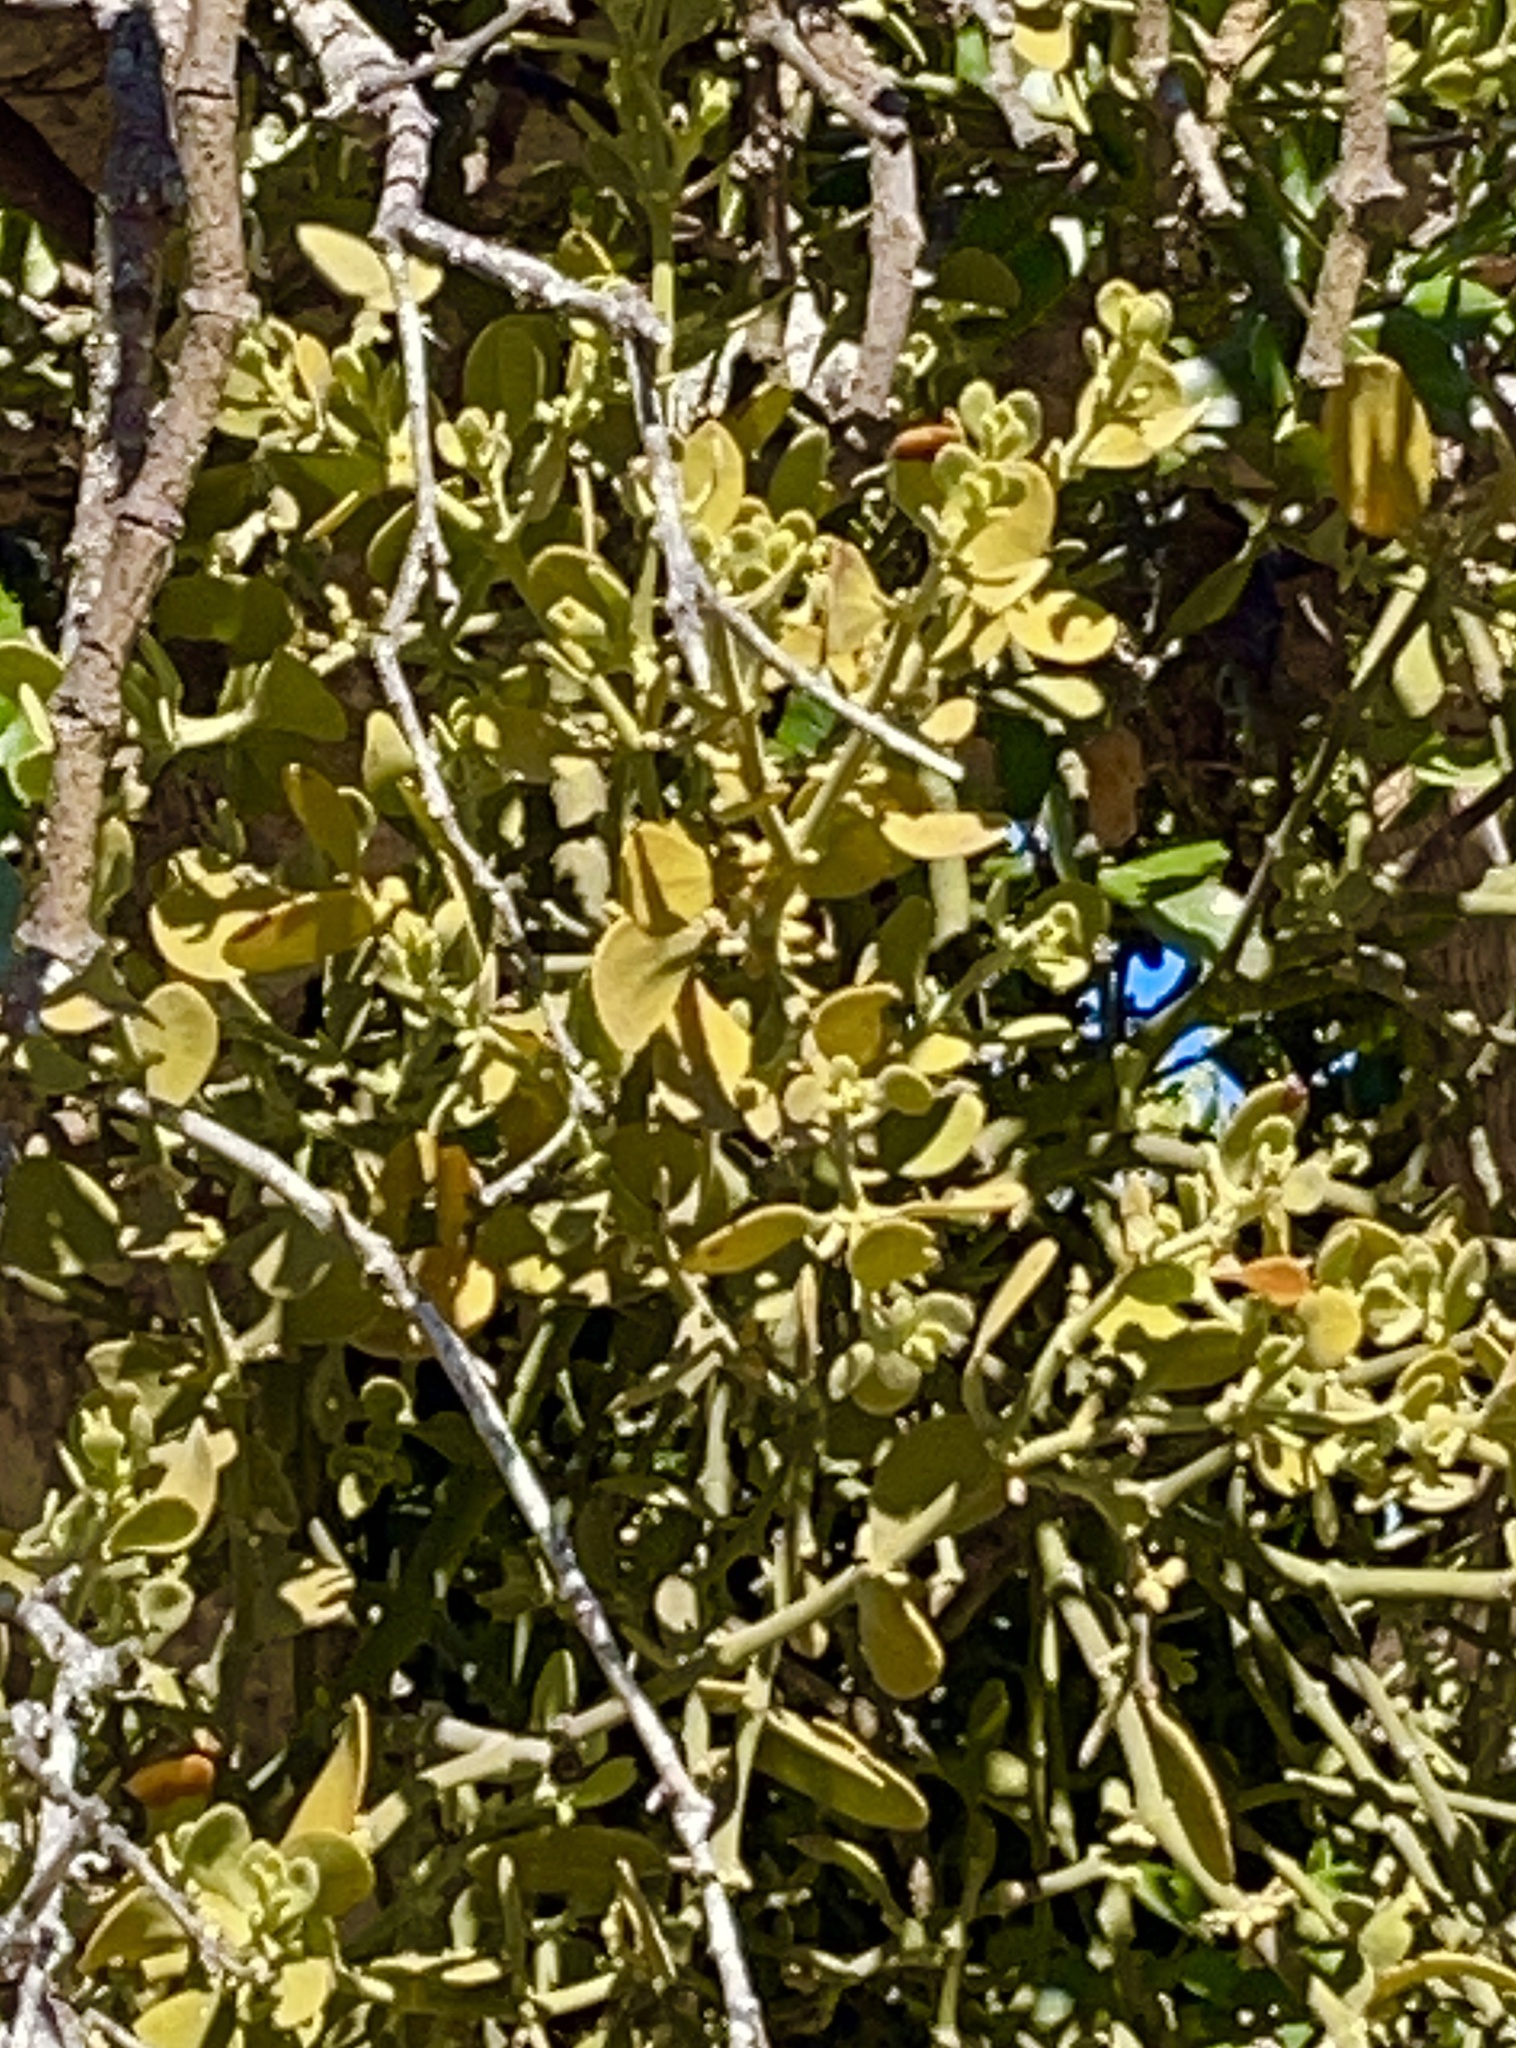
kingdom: Plantae
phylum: Tracheophyta
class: Magnoliopsida
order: Santalales
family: Viscaceae
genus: Phoradendron
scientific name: Phoradendron leucarpum
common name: Pacific mistletoe
